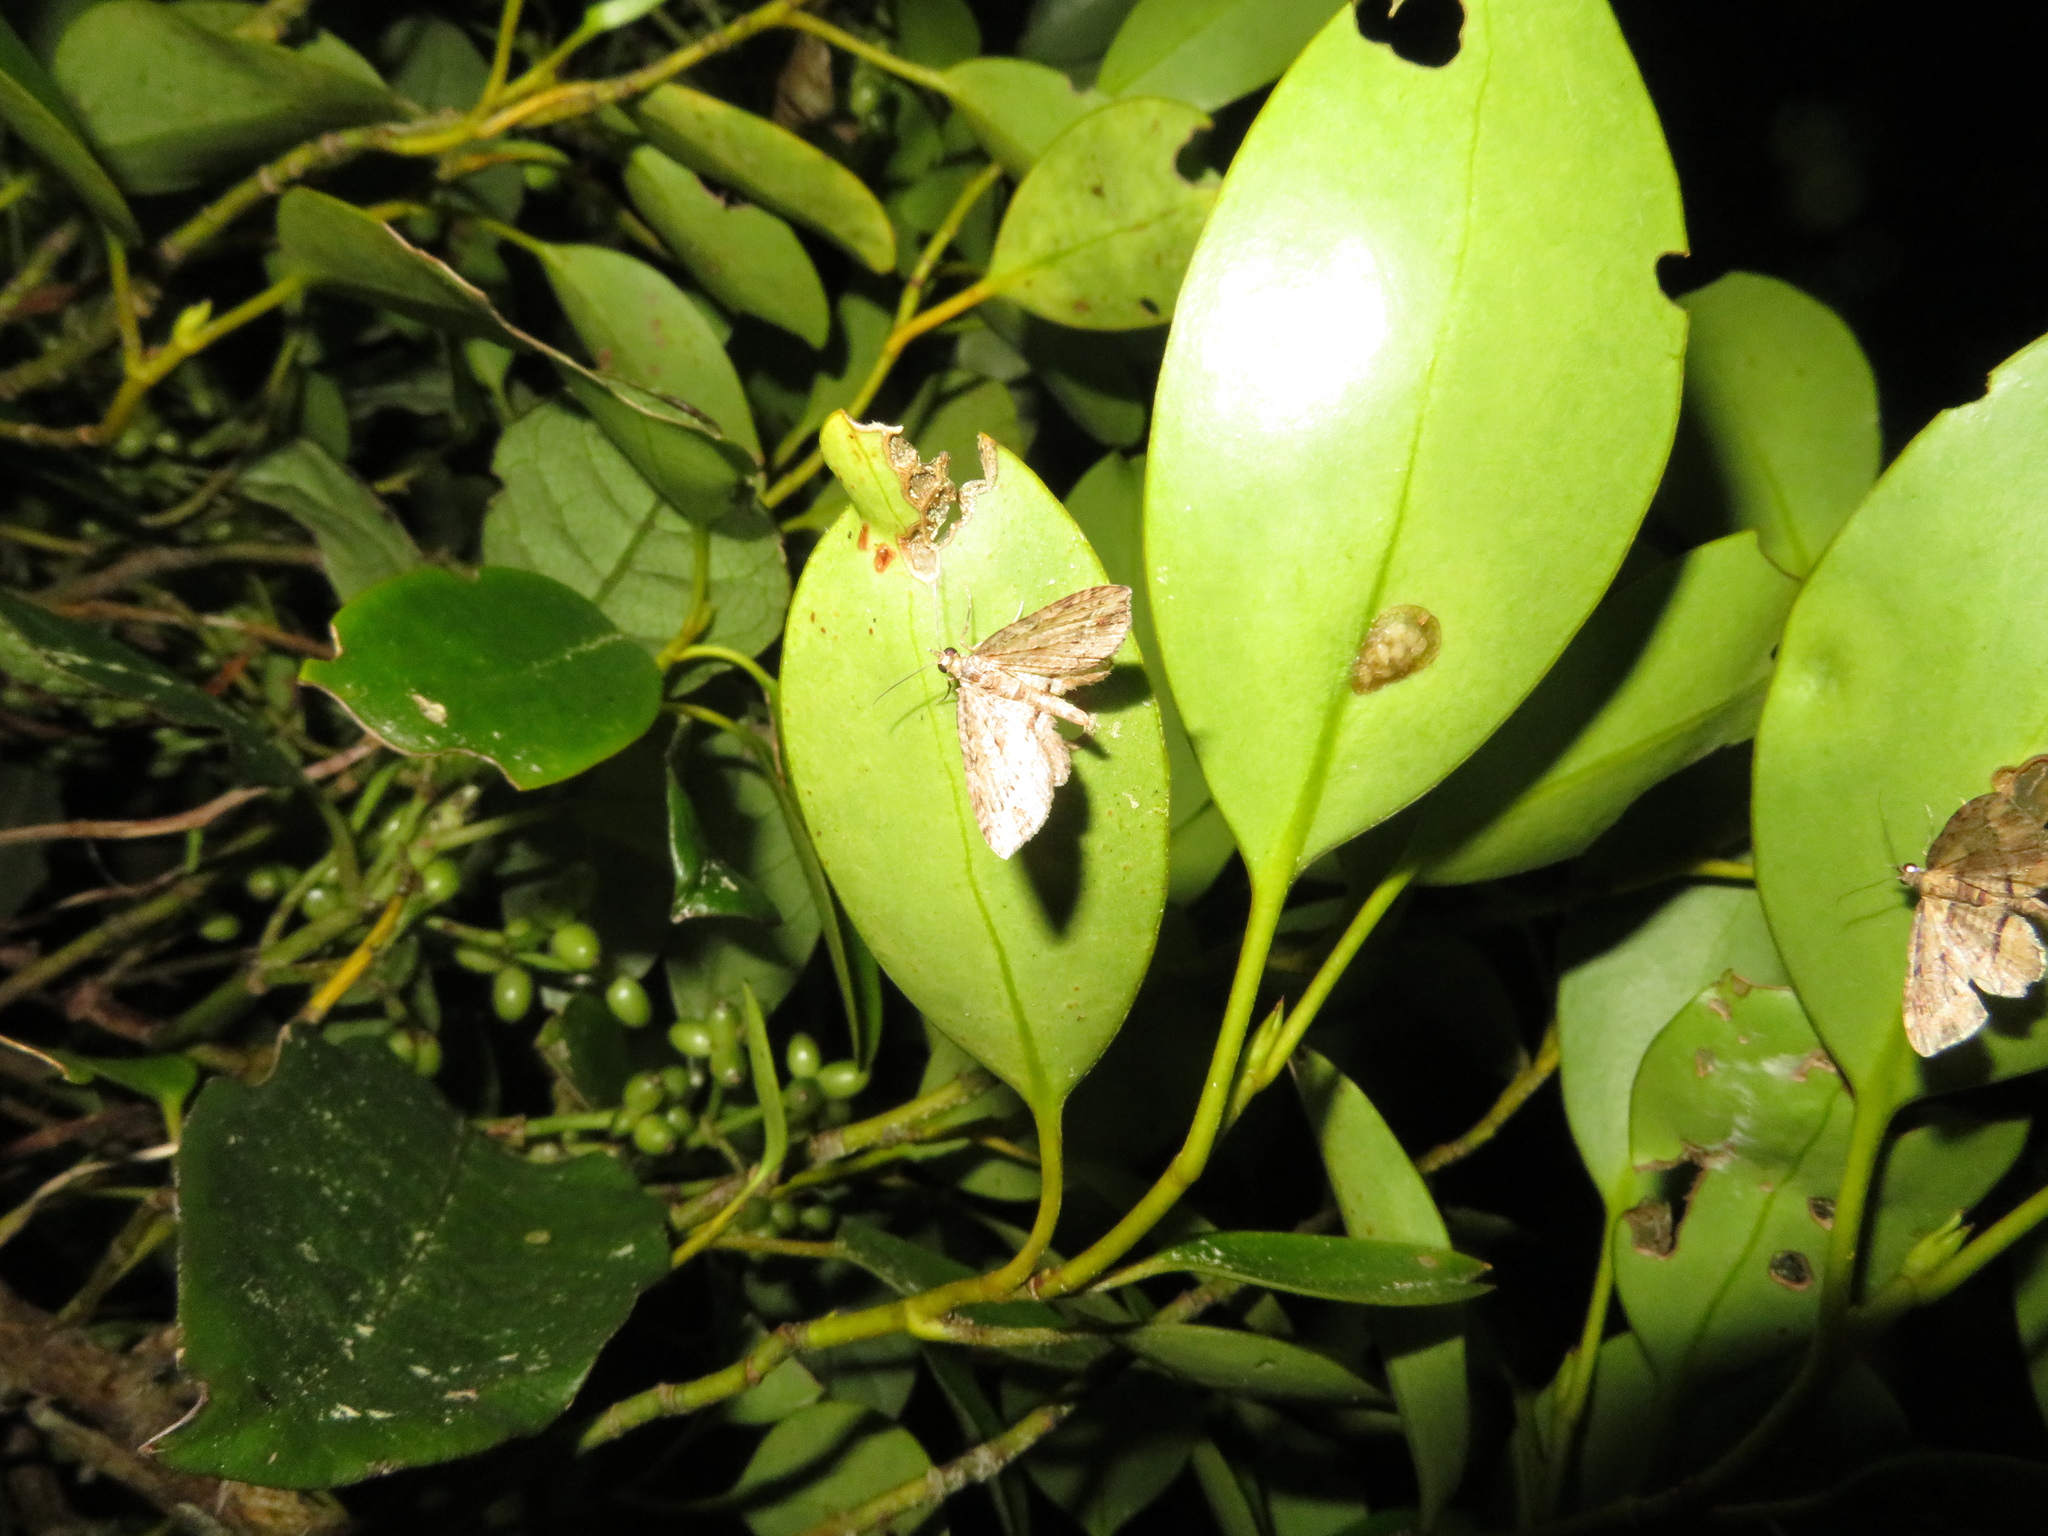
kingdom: Animalia
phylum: Arthropoda
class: Insecta
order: Lepidoptera
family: Geometridae
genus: Chloroclystis
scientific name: Chloroclystis filata
